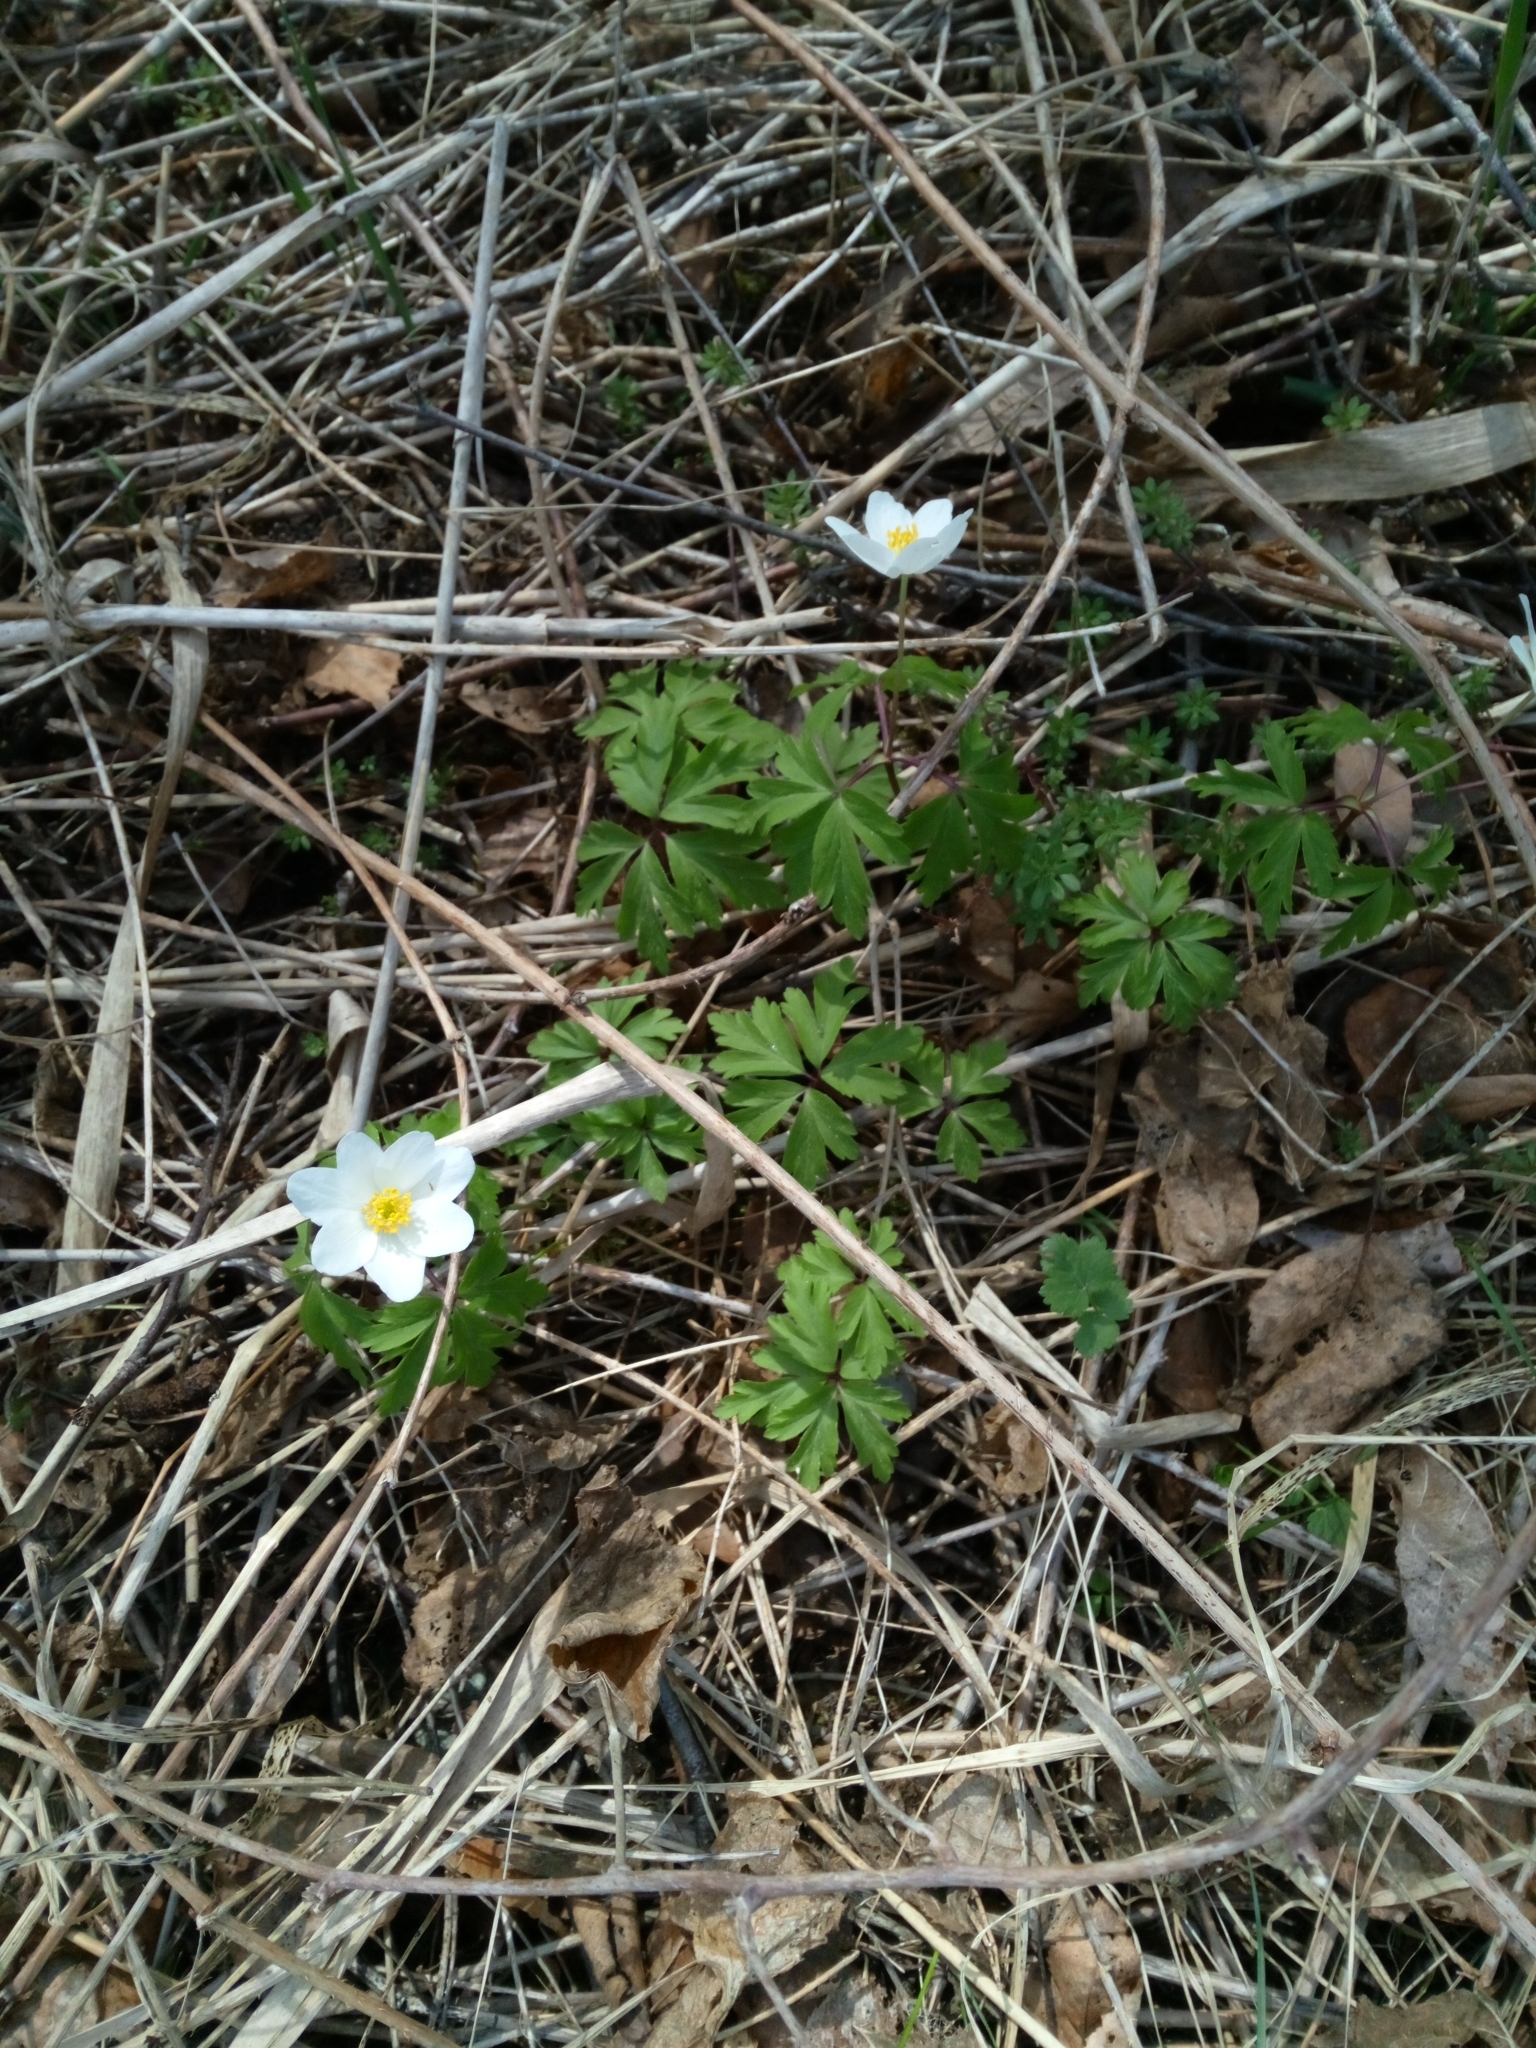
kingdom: Plantae
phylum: Tracheophyta
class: Magnoliopsida
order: Ranunculales
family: Ranunculaceae
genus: Anemone
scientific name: Anemone nemorosa
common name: Wood anemone
